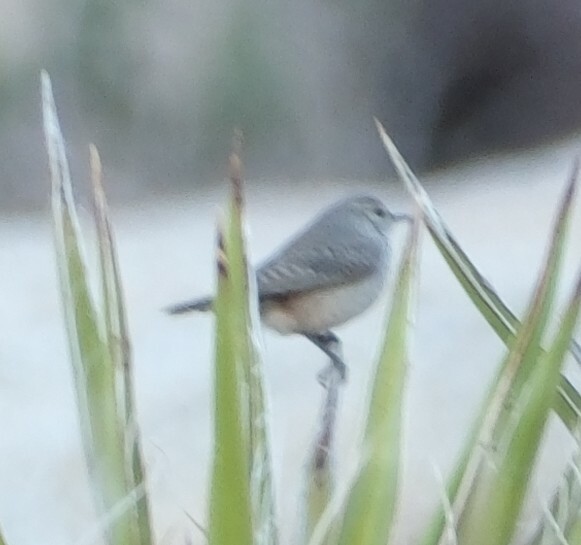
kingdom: Animalia
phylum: Chordata
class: Aves
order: Passeriformes
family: Troglodytidae
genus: Salpinctes
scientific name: Salpinctes obsoletus
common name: Rock wren
